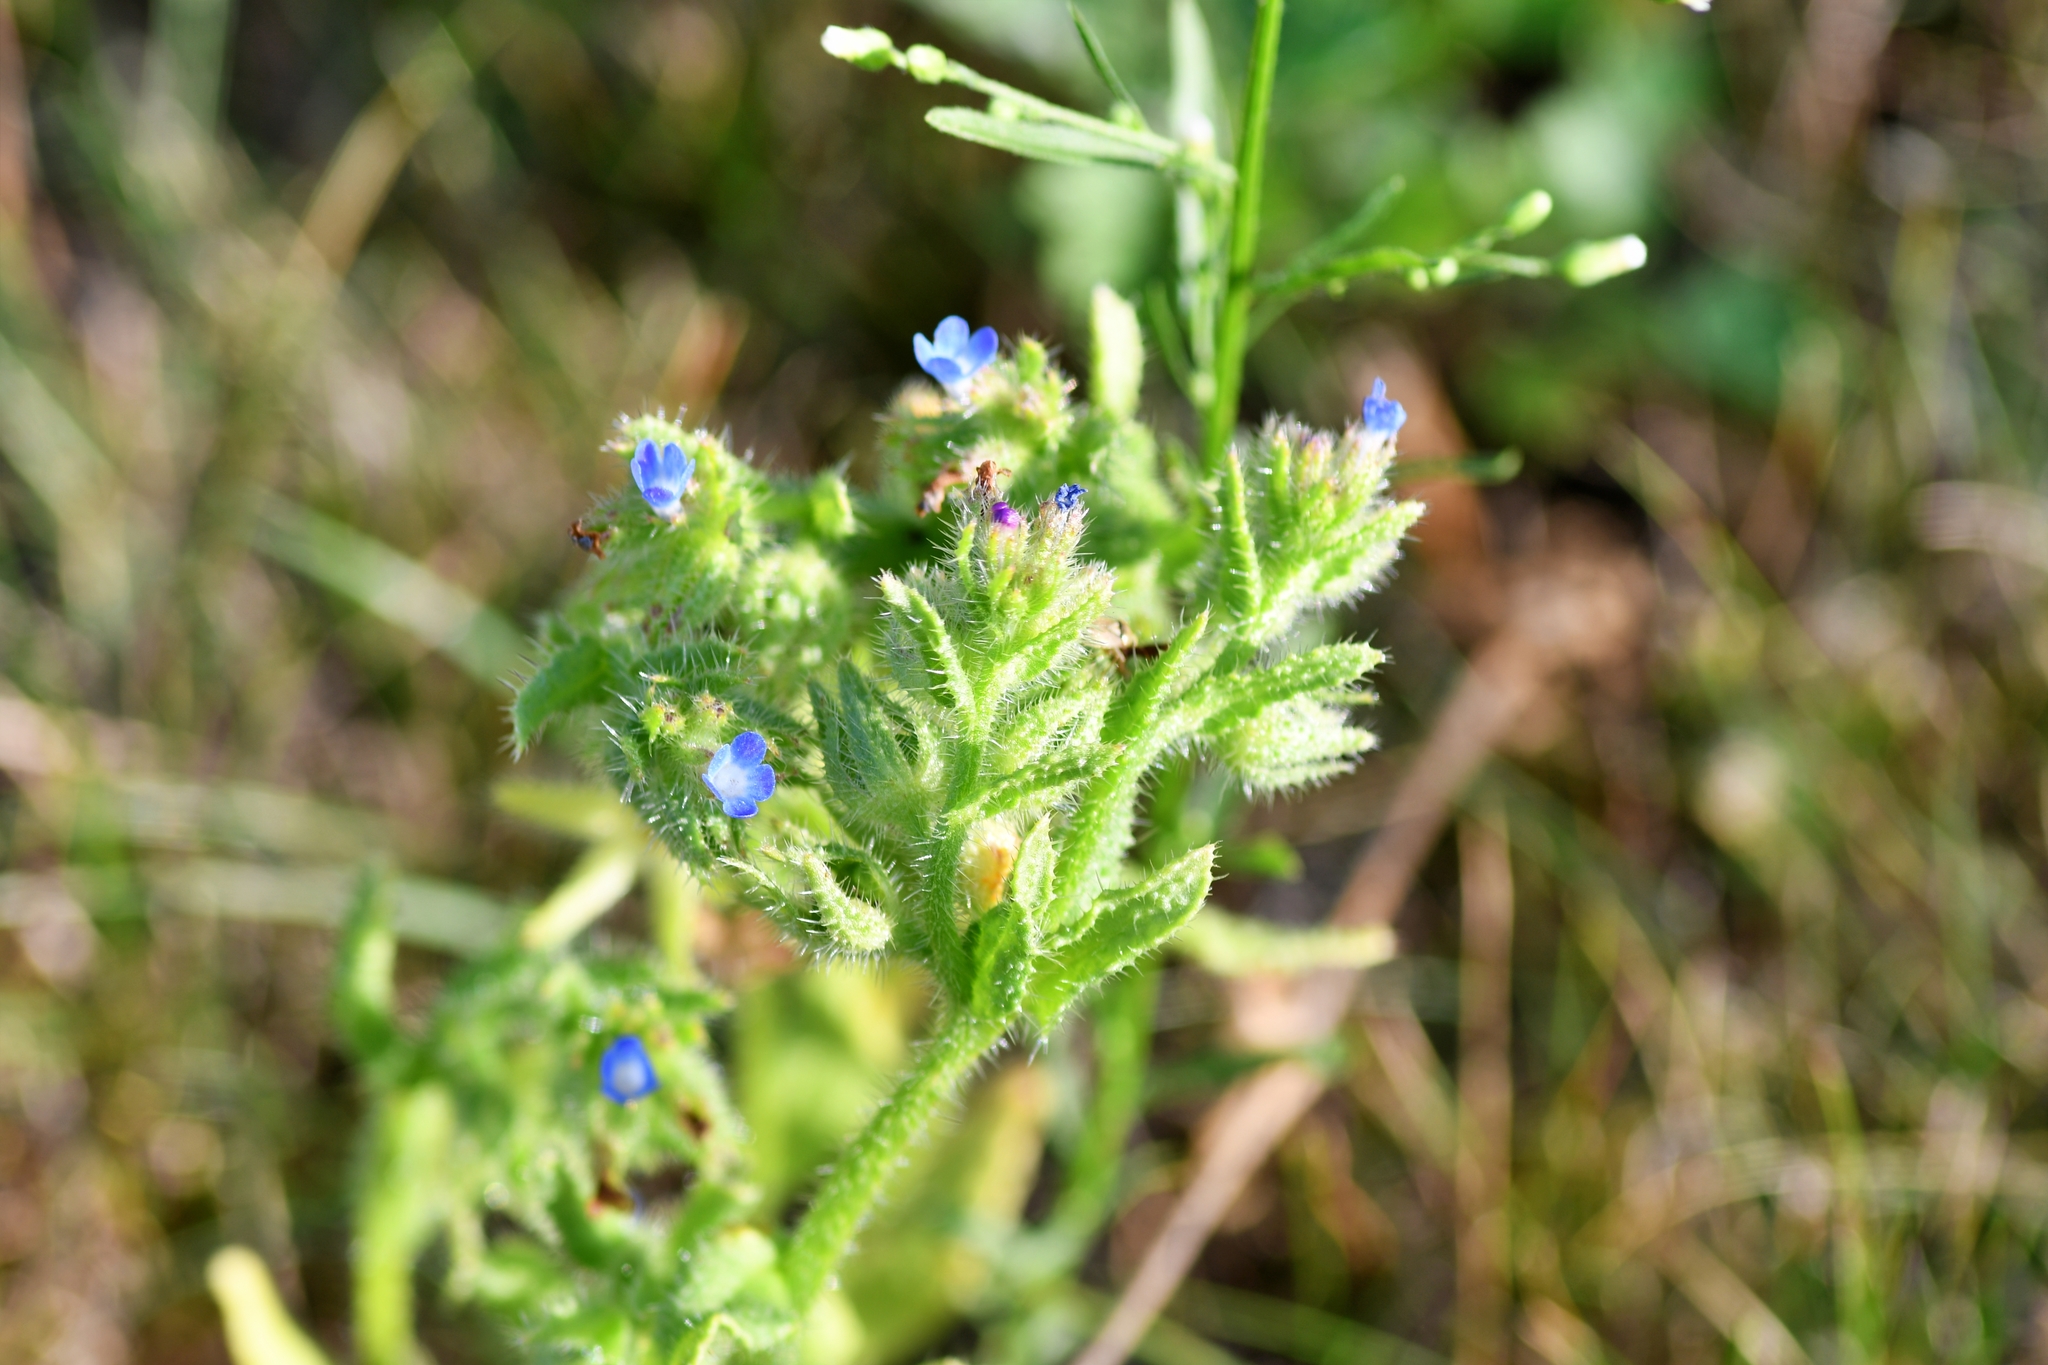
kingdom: Plantae
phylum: Tracheophyta
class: Magnoliopsida
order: Boraginales
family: Boraginaceae
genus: Lycopsis
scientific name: Lycopsis arvensis
